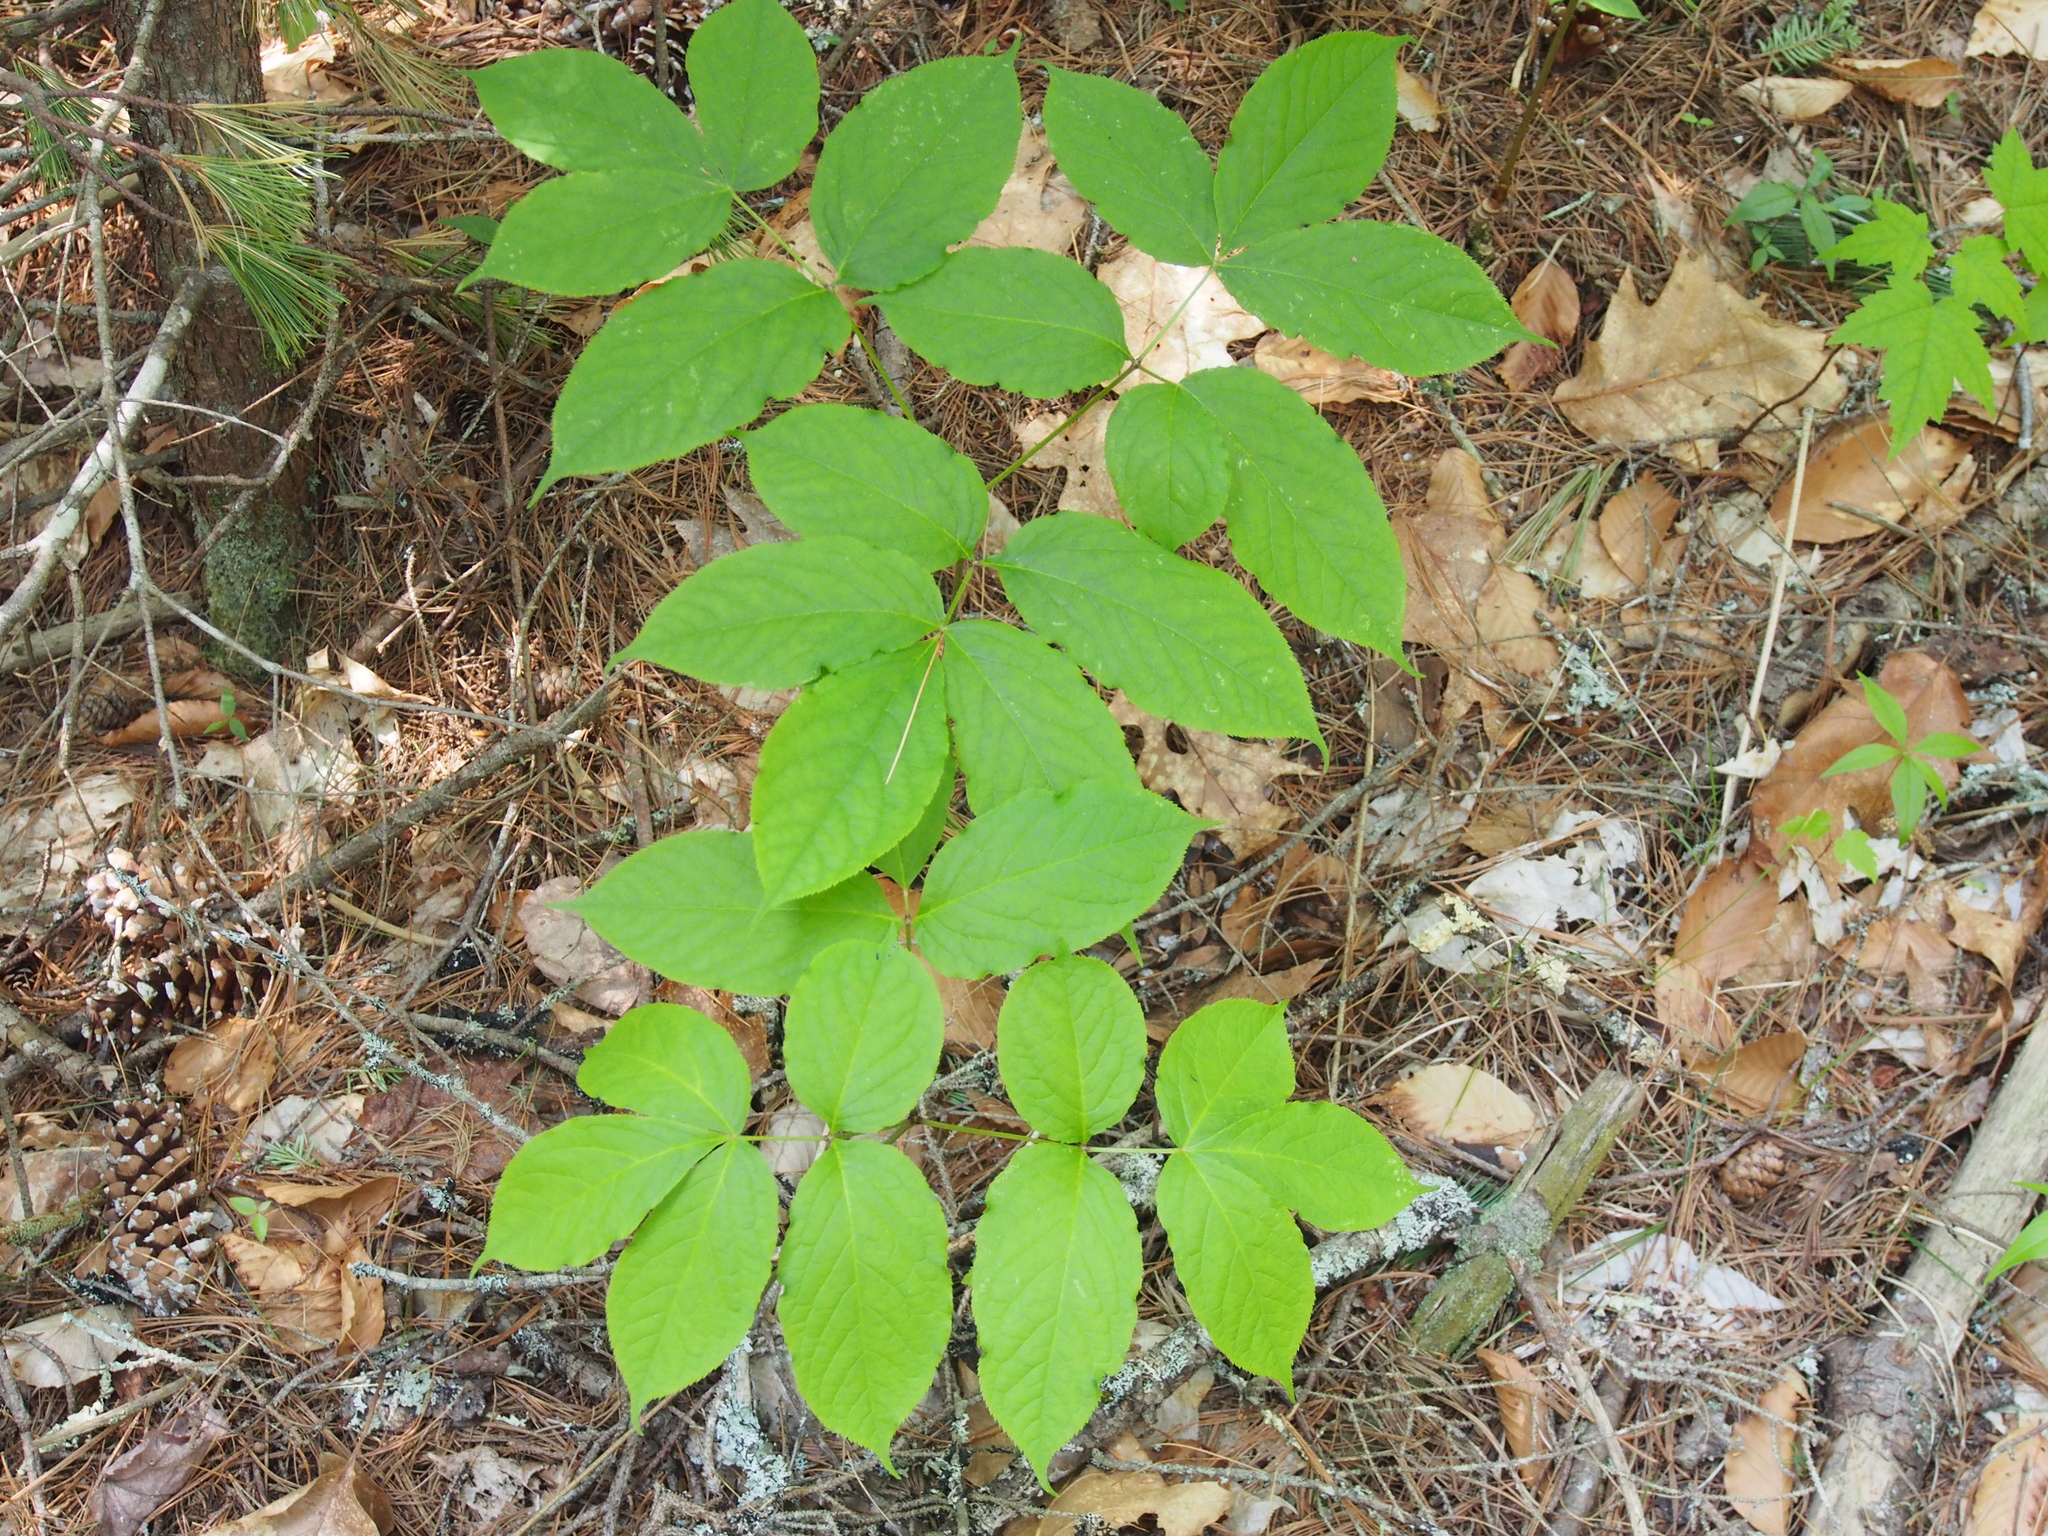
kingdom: Plantae
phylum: Tracheophyta
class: Magnoliopsida
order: Apiales
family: Araliaceae
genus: Aralia
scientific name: Aralia nudicaulis
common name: Wild sarsaparilla
